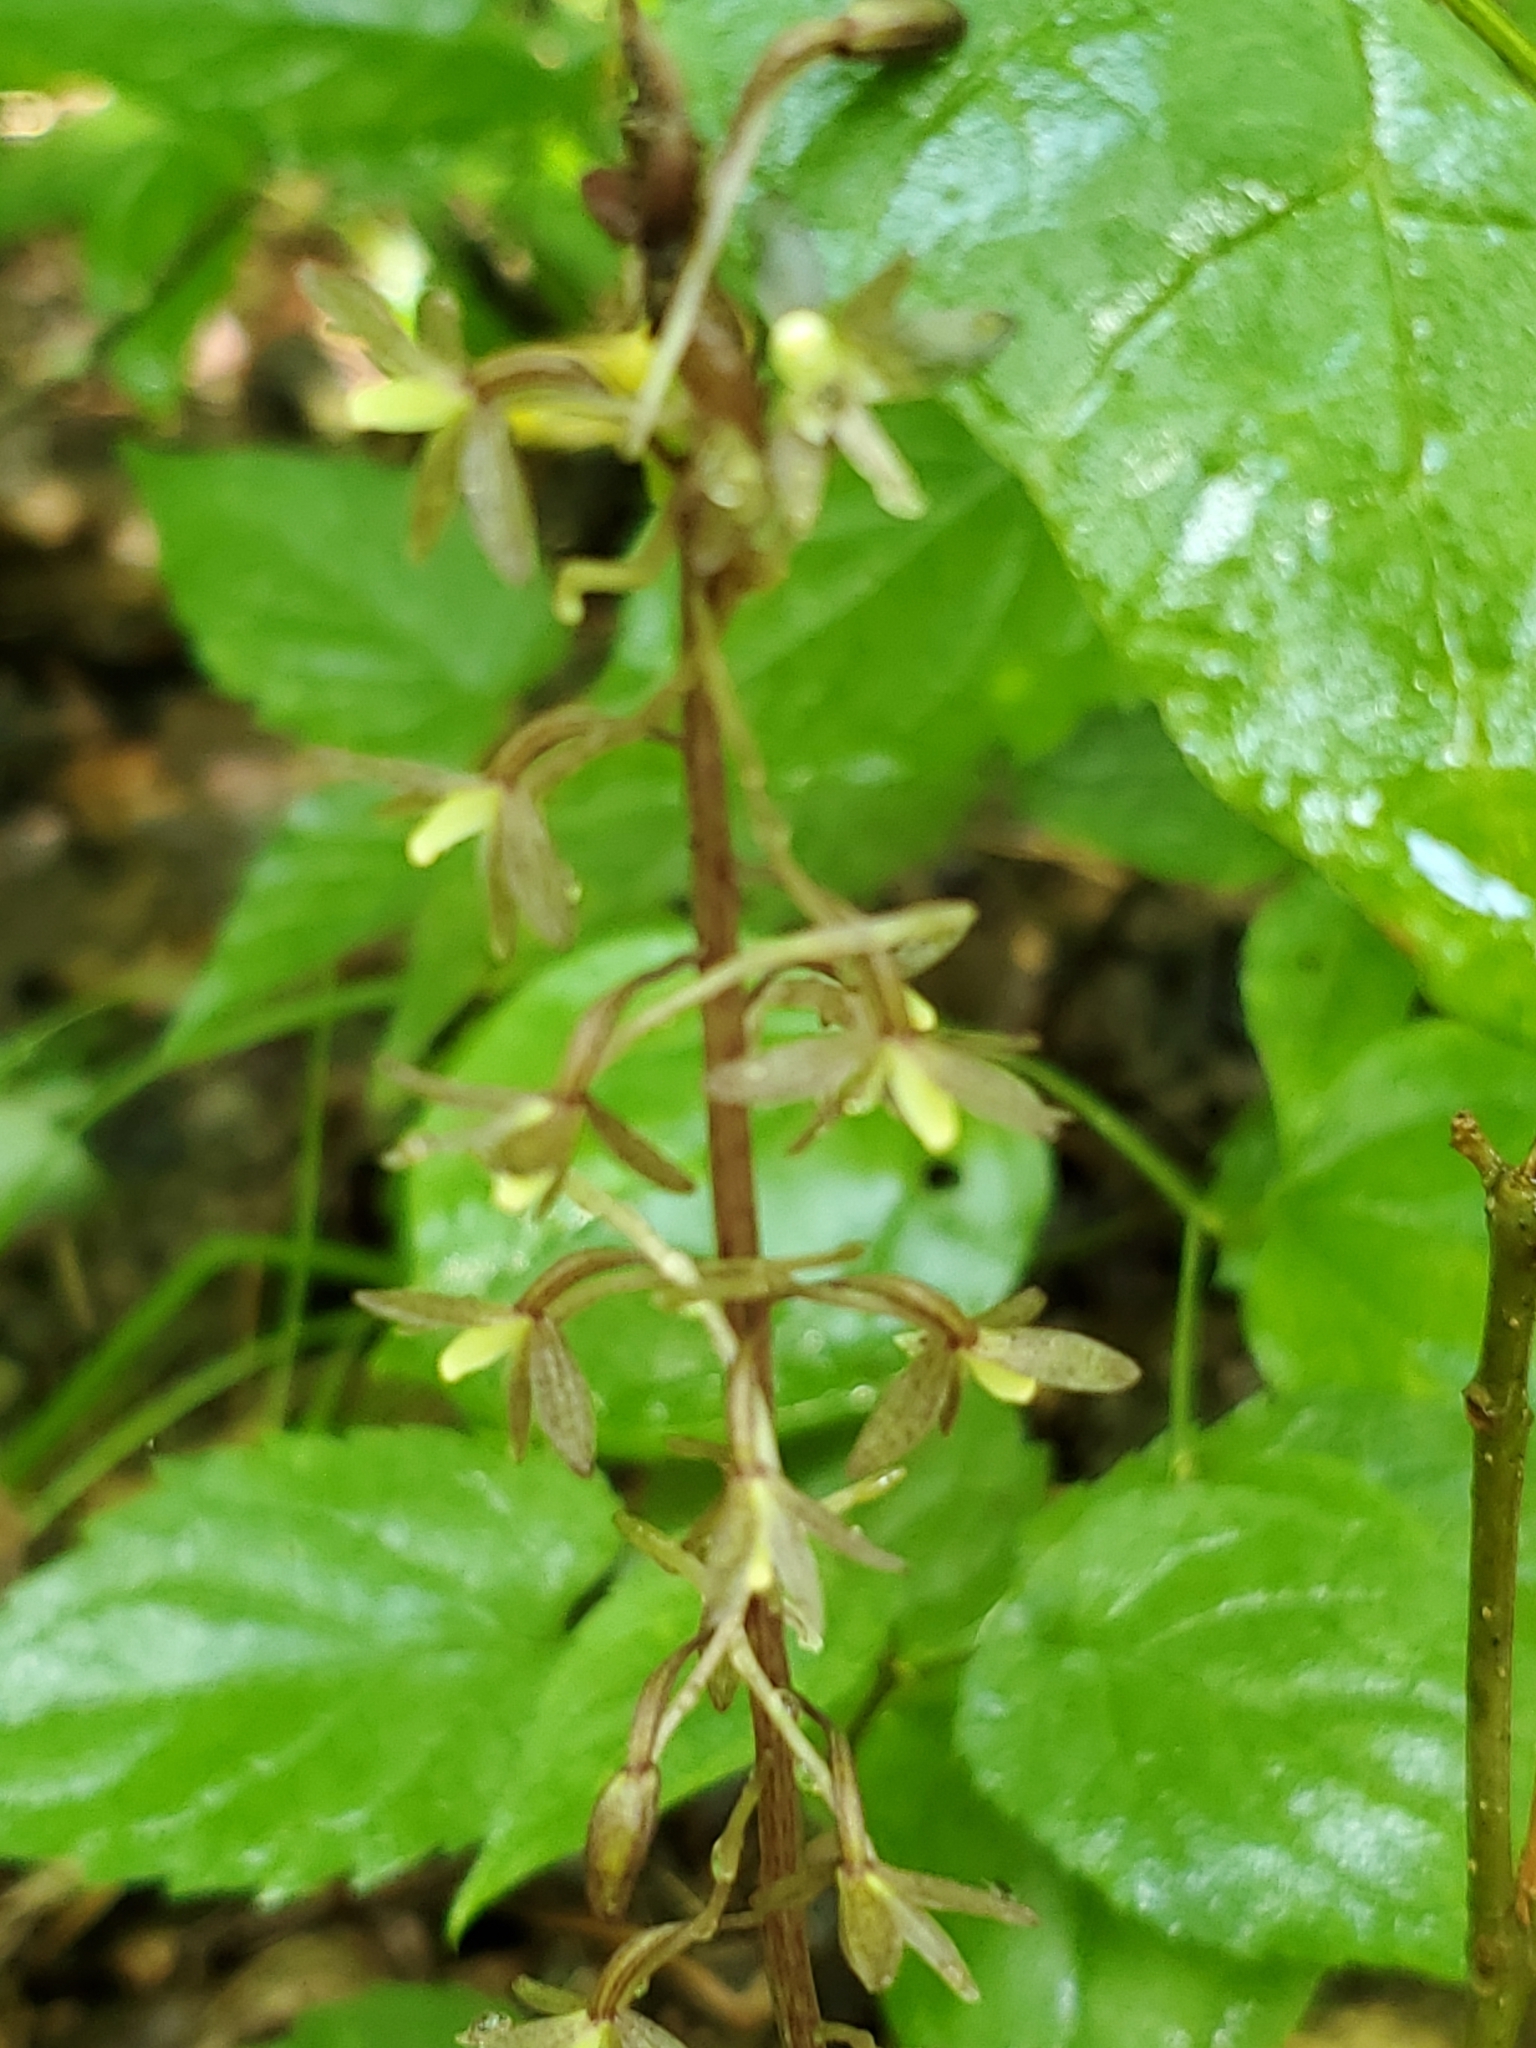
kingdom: Plantae
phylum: Tracheophyta
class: Liliopsida
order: Asparagales
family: Orchidaceae
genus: Tipularia
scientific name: Tipularia discolor
